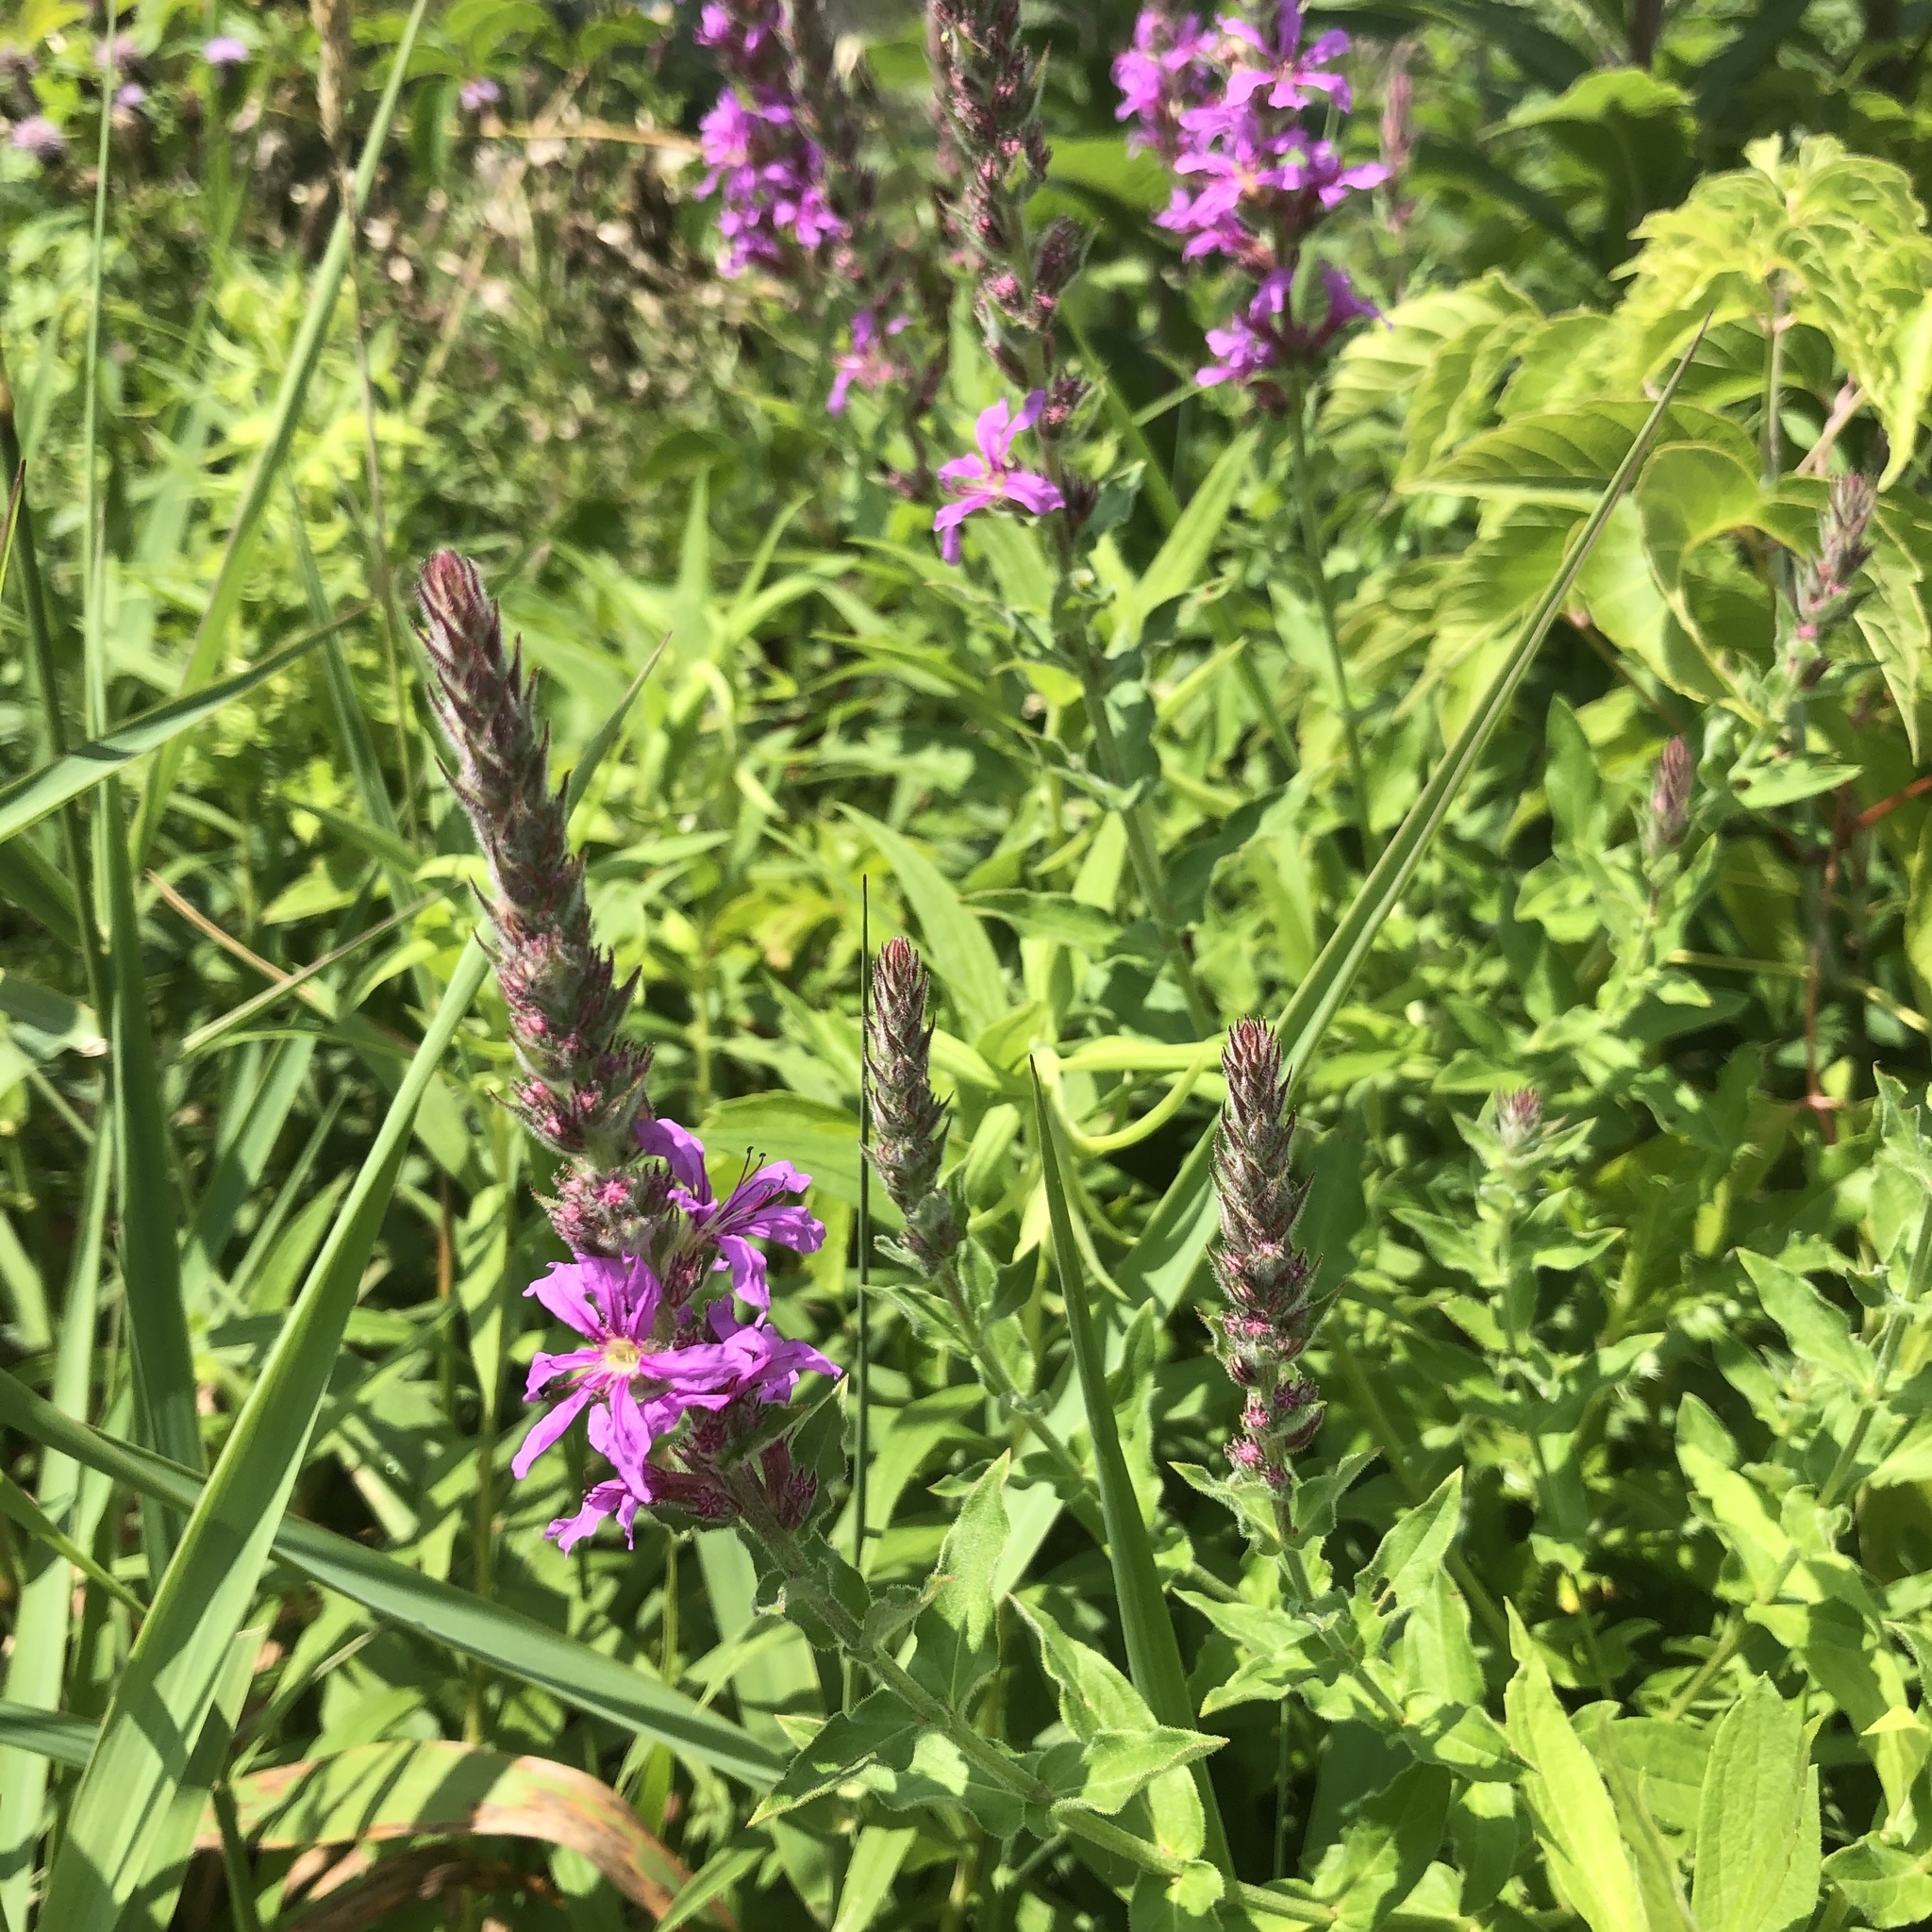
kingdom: Plantae
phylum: Tracheophyta
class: Magnoliopsida
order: Myrtales
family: Lythraceae
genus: Lythrum
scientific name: Lythrum salicaria
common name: Purple loosestrife
